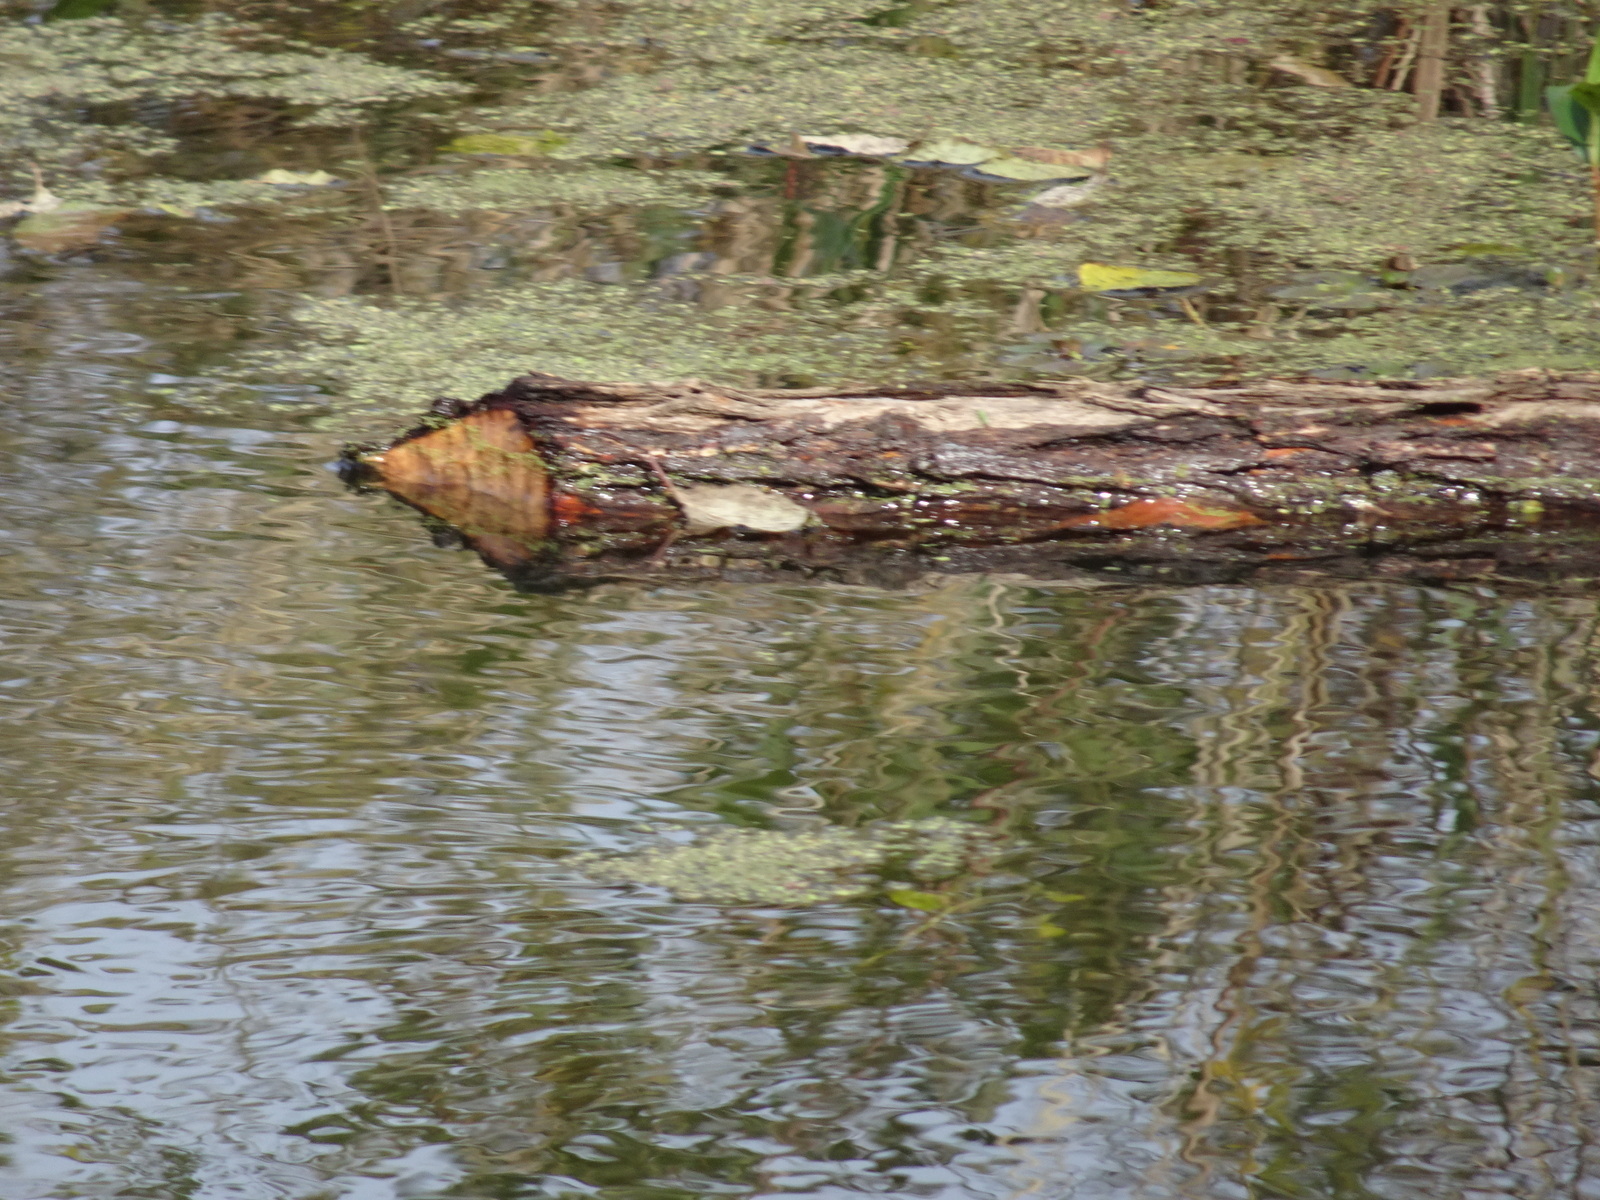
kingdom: Animalia
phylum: Chordata
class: Mammalia
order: Rodentia
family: Castoridae
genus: Castor
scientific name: Castor canadensis
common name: American beaver
